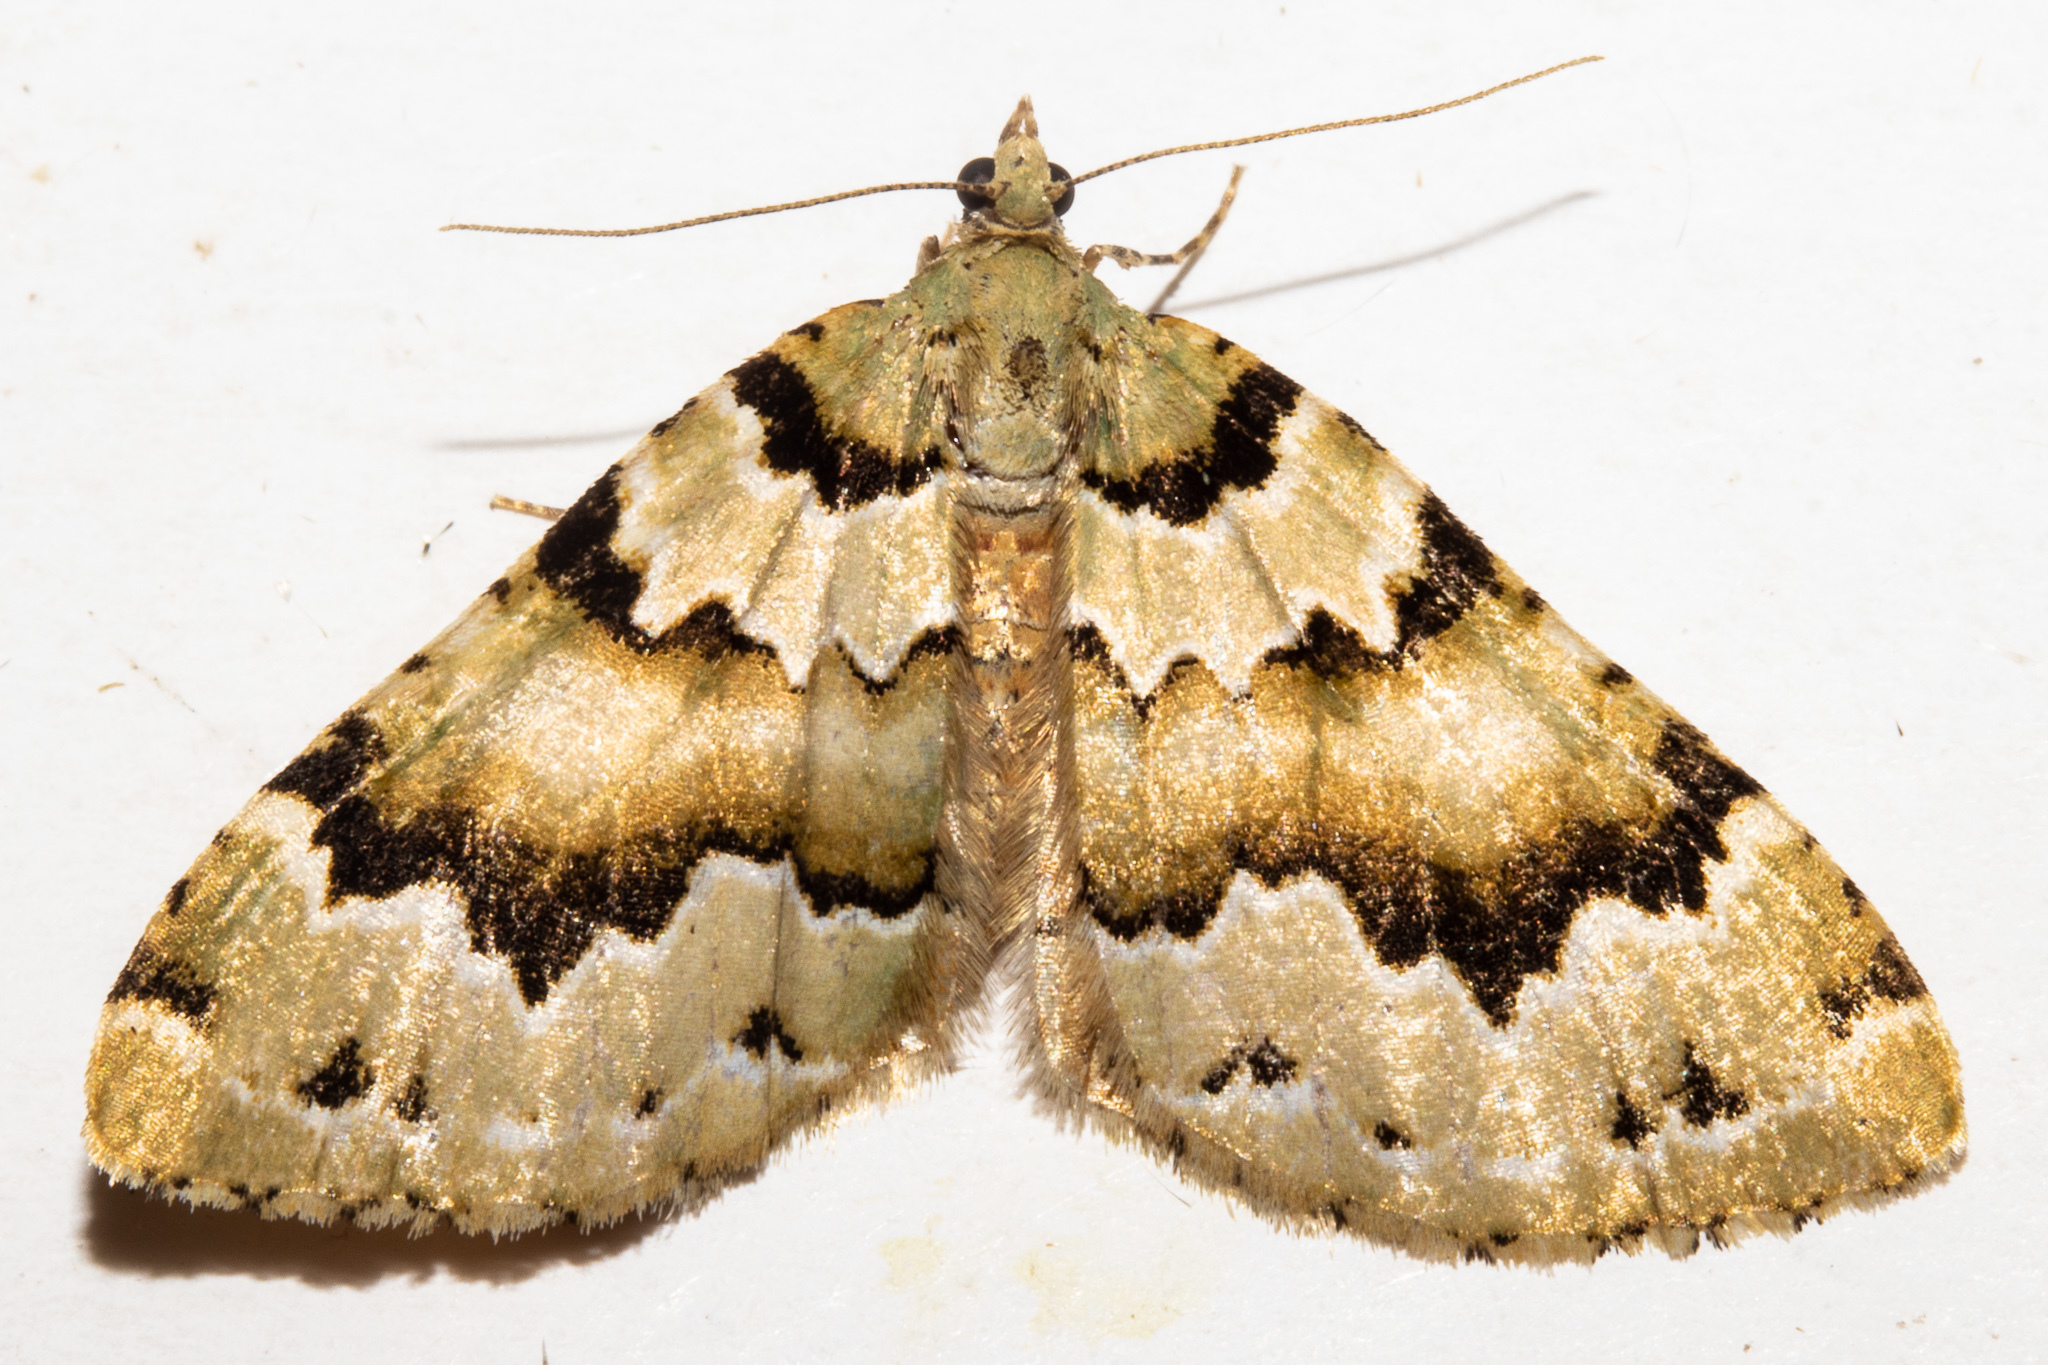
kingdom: Animalia
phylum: Arthropoda
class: Insecta
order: Lepidoptera
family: Geometridae
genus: Asaphodes
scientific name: Asaphodes adonis
